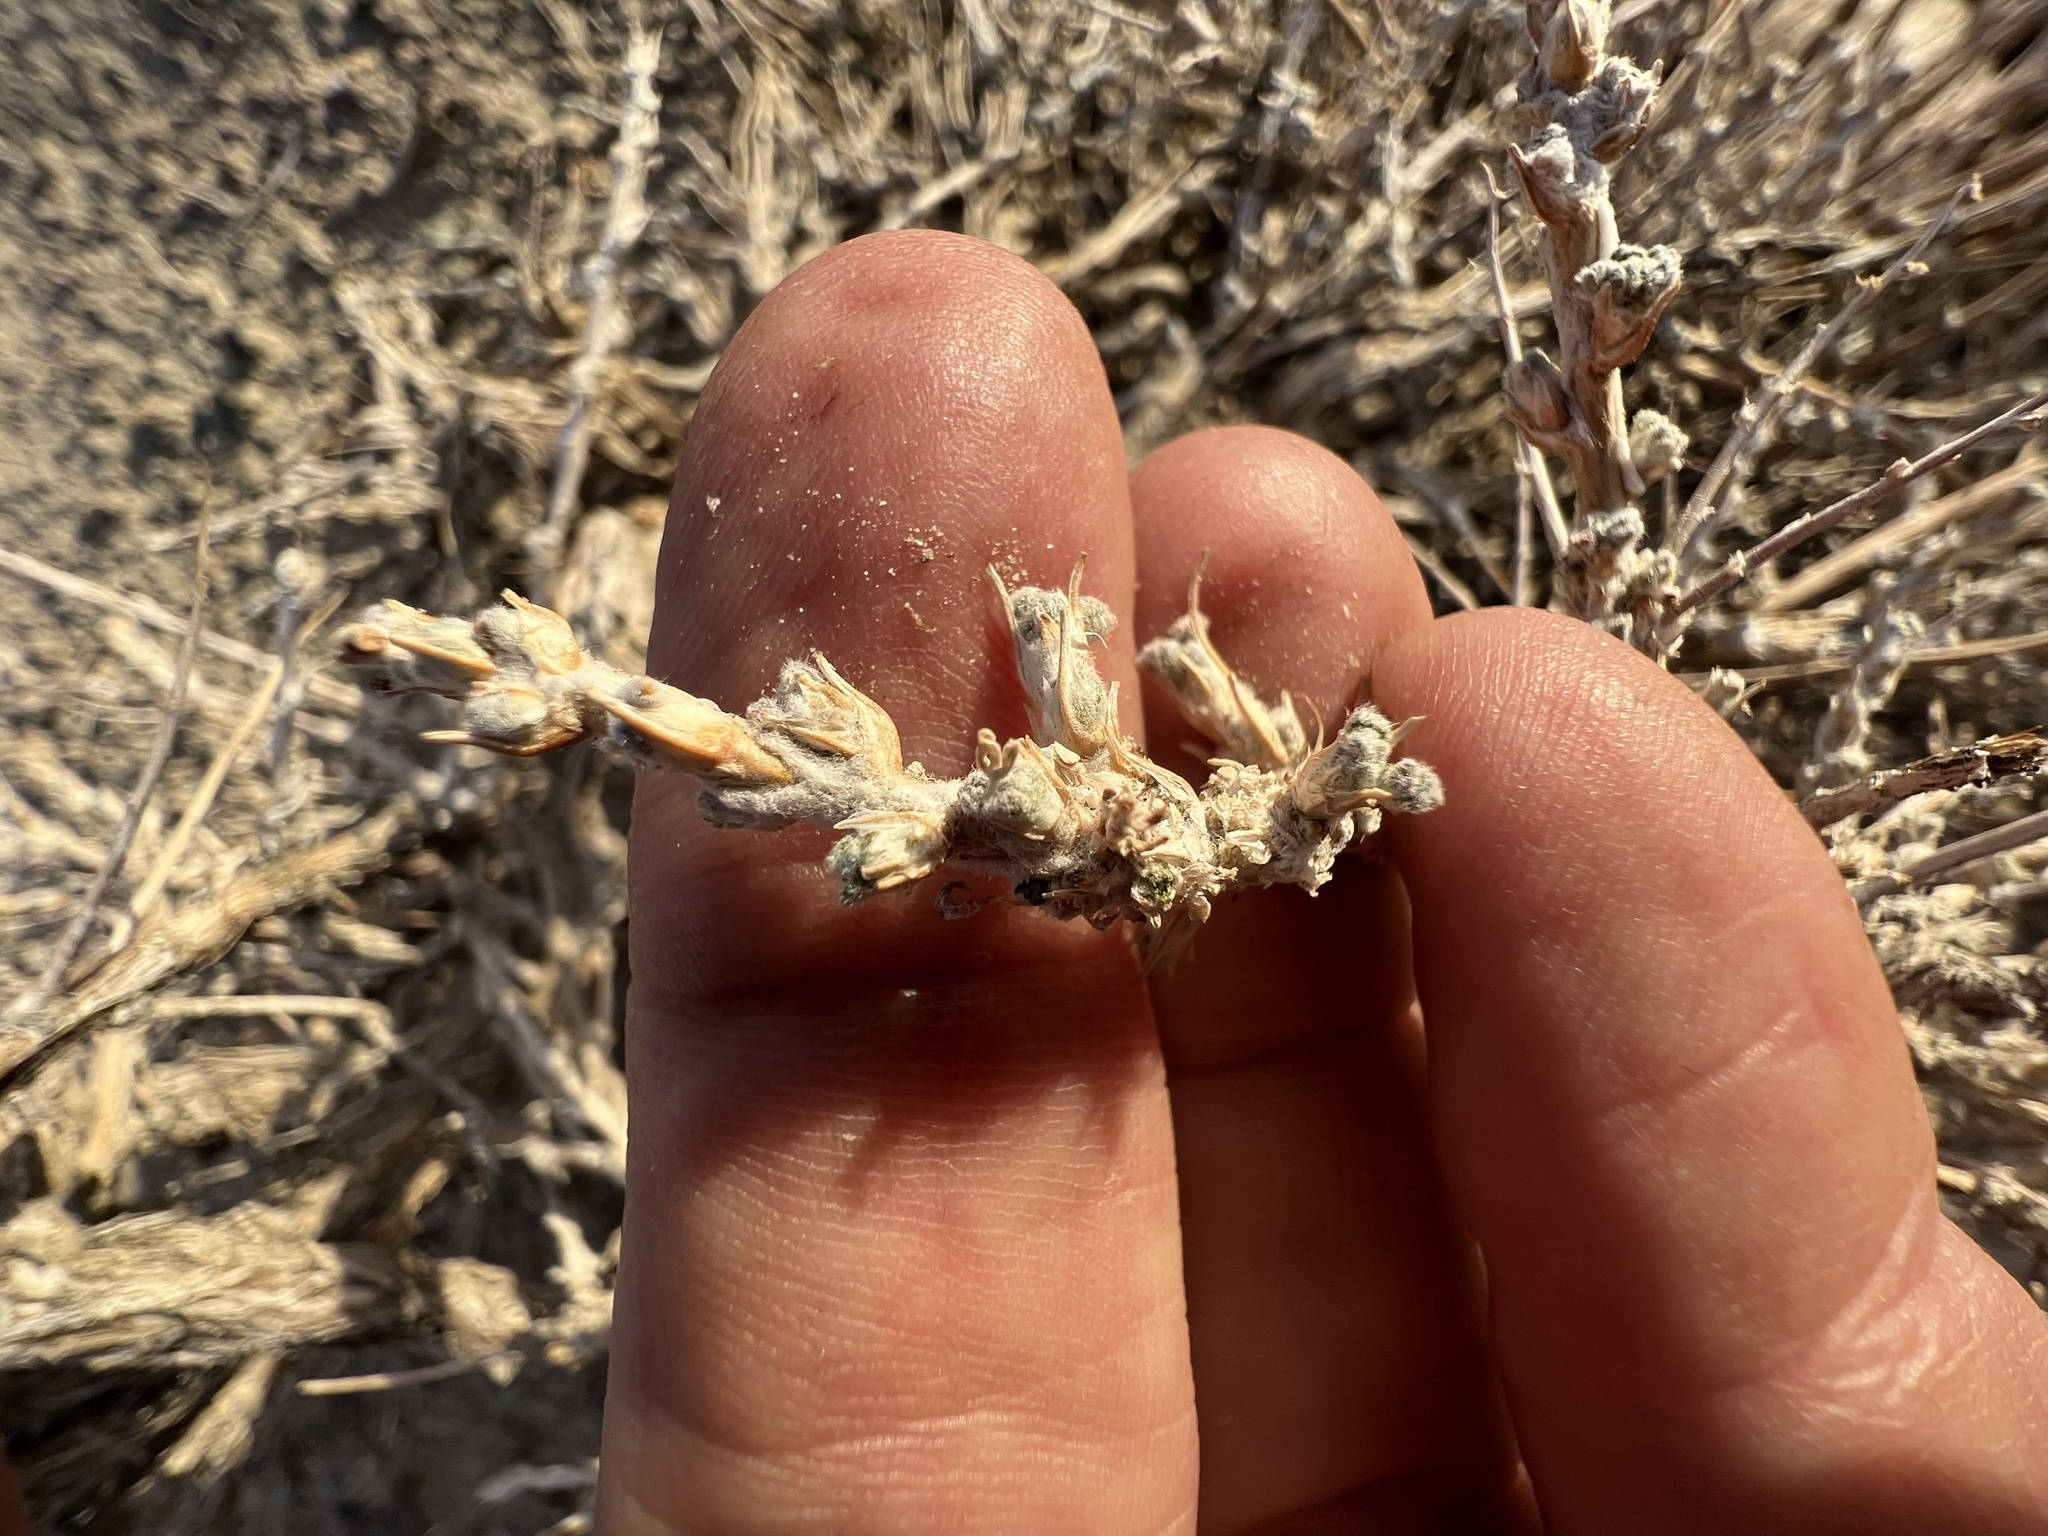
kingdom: Plantae
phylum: Tracheophyta
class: Magnoliopsida
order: Asterales
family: Asteraceae
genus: Artemisia
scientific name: Artemisia spinescens
